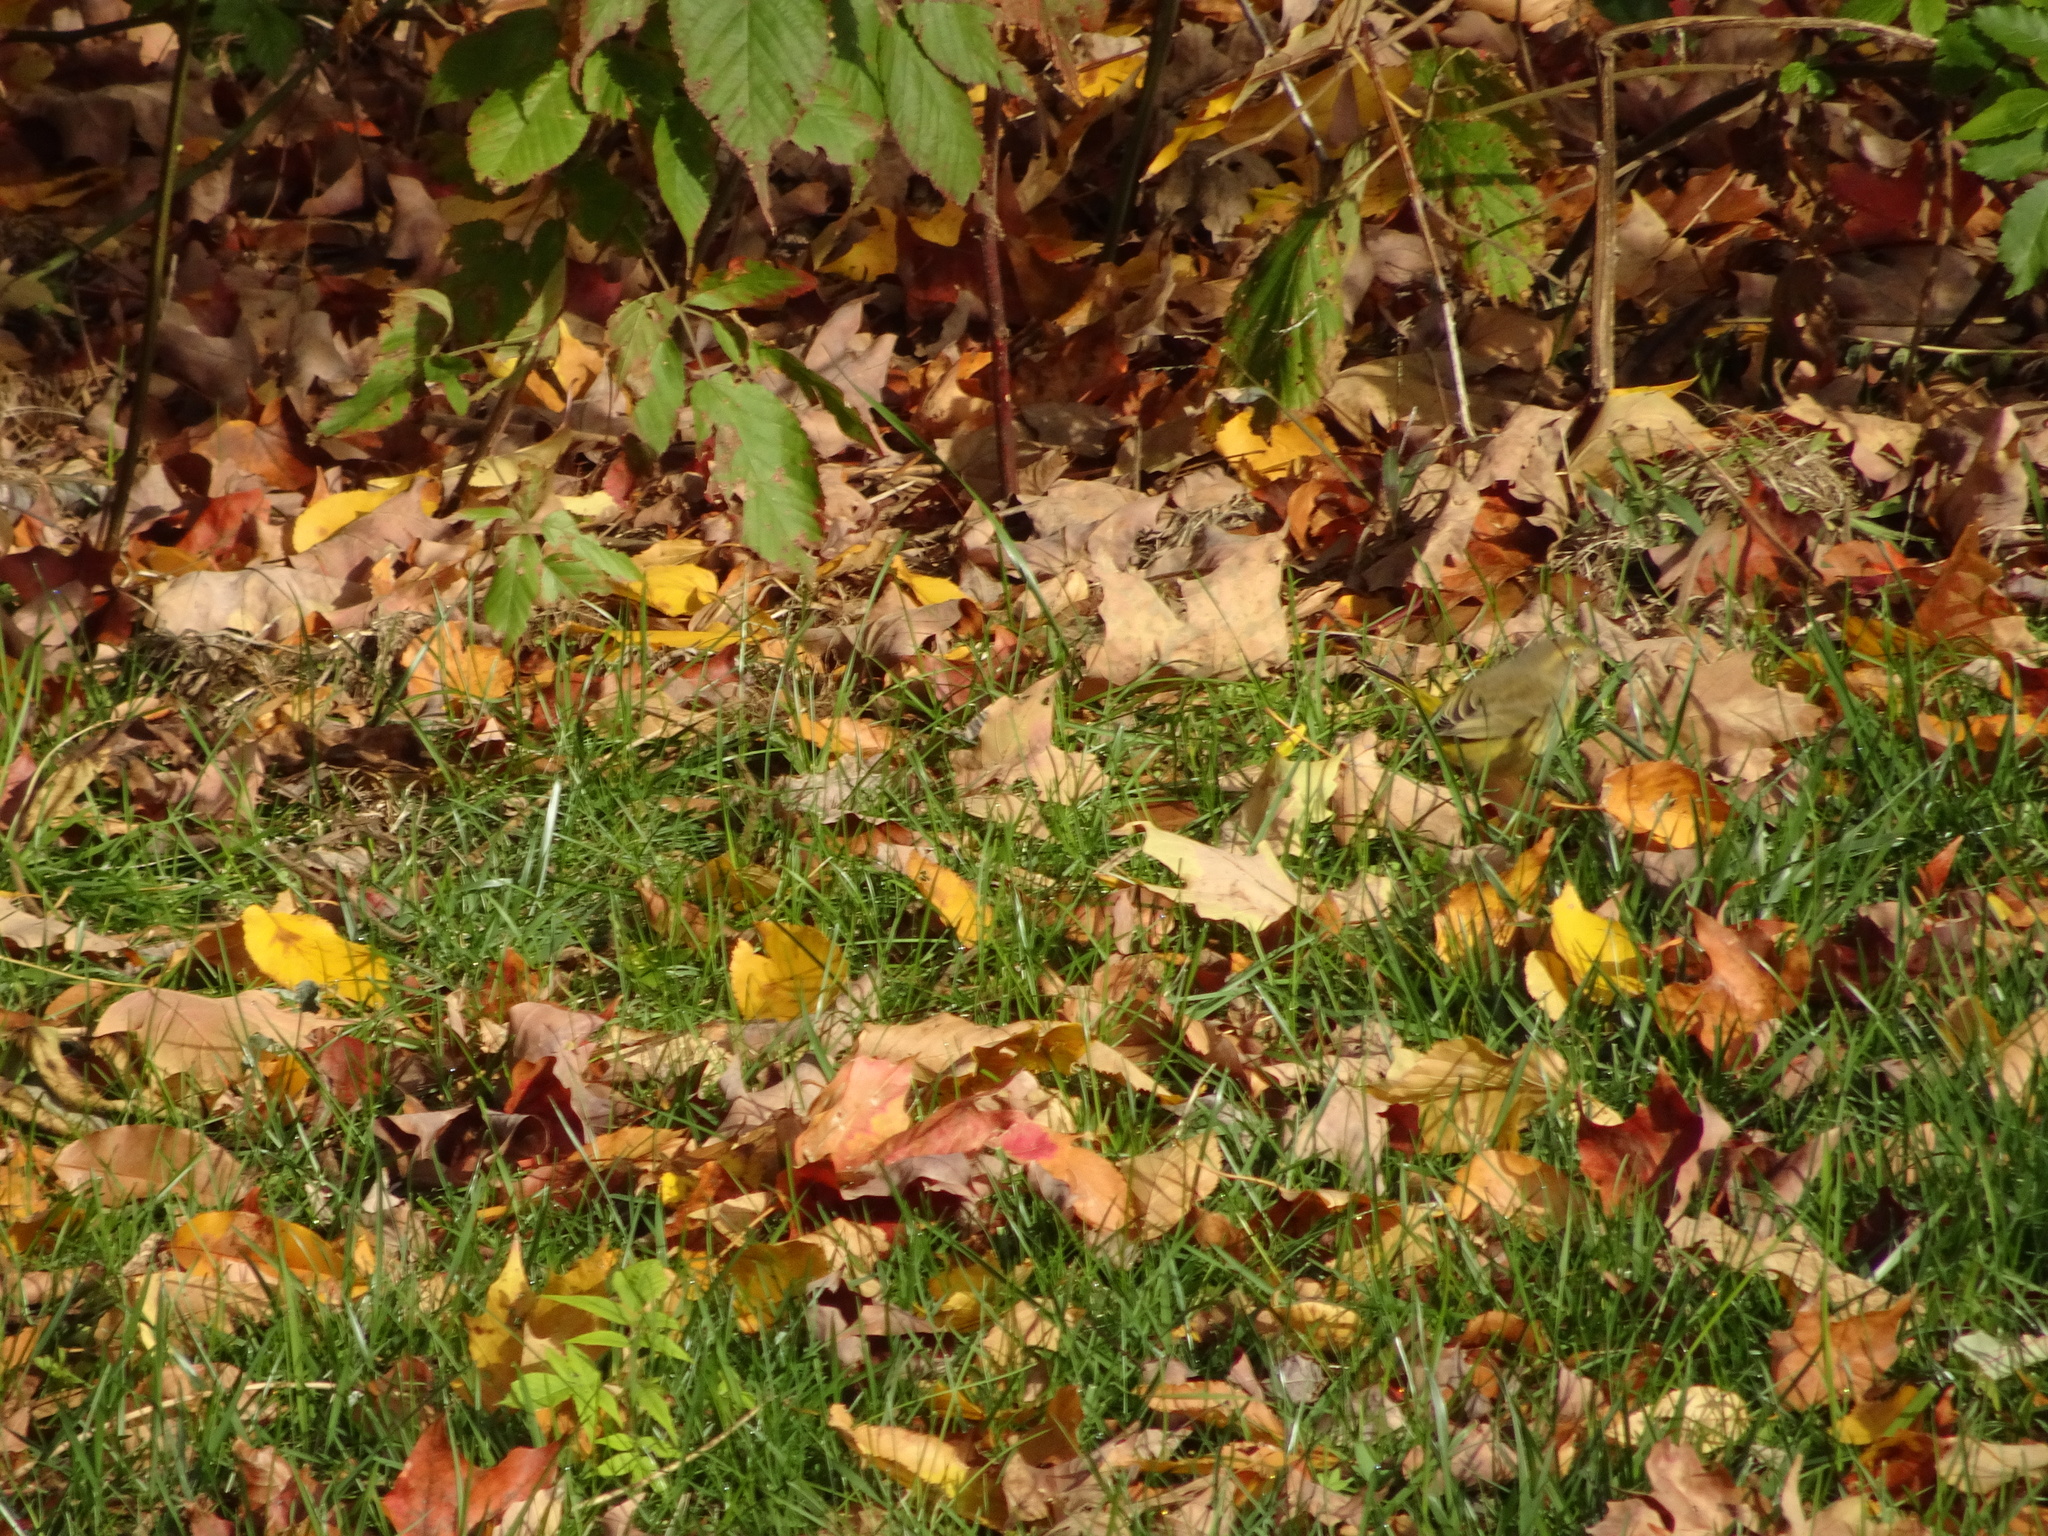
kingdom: Animalia
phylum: Chordata
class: Aves
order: Passeriformes
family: Parulidae
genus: Setophaga
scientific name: Setophaga palmarum
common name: Palm warbler
